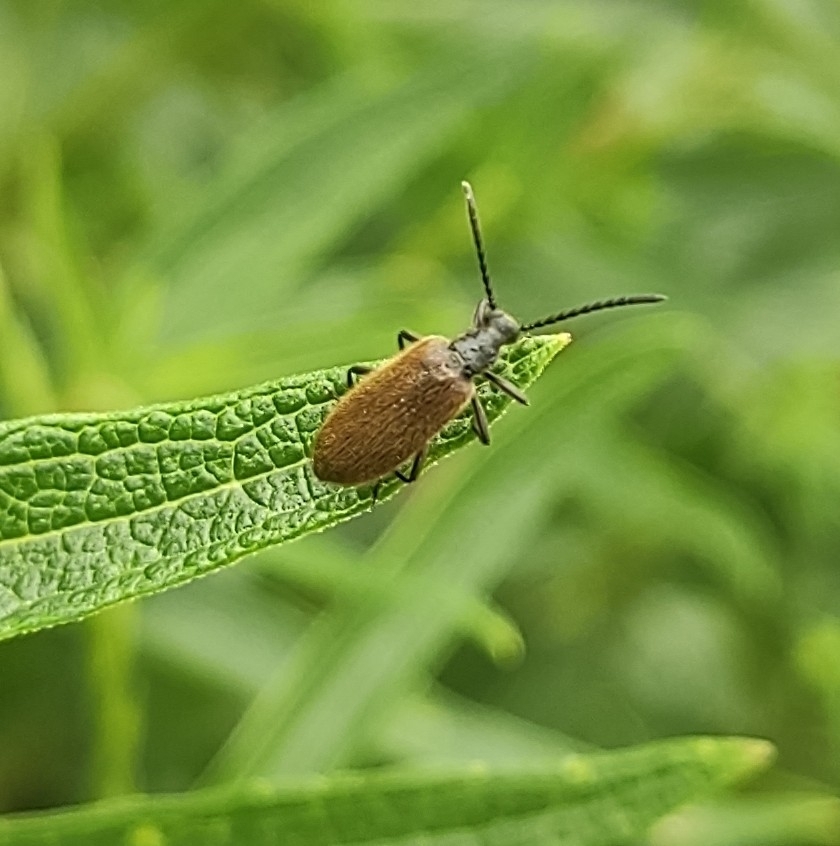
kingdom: Animalia
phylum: Arthropoda
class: Insecta
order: Coleoptera
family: Tenebrionidae
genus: Lagria
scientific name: Lagria hirta
